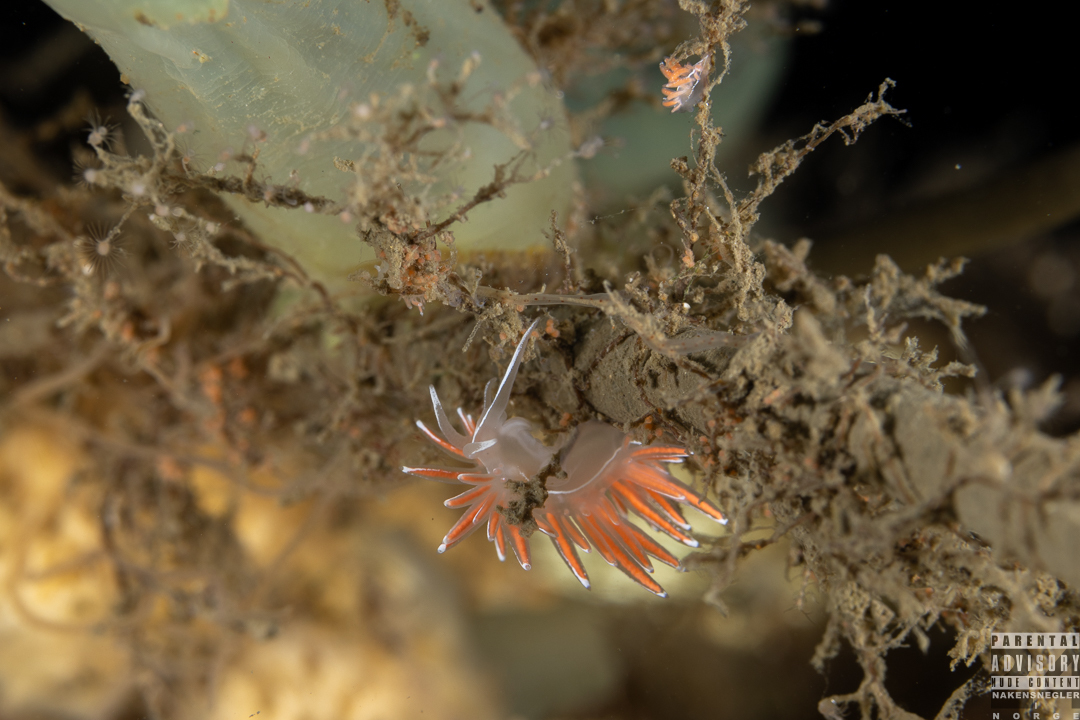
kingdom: Animalia
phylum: Mollusca
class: Gastropoda
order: Nudibranchia
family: Coryphellidae
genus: Coryphella
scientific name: Coryphella lineata
